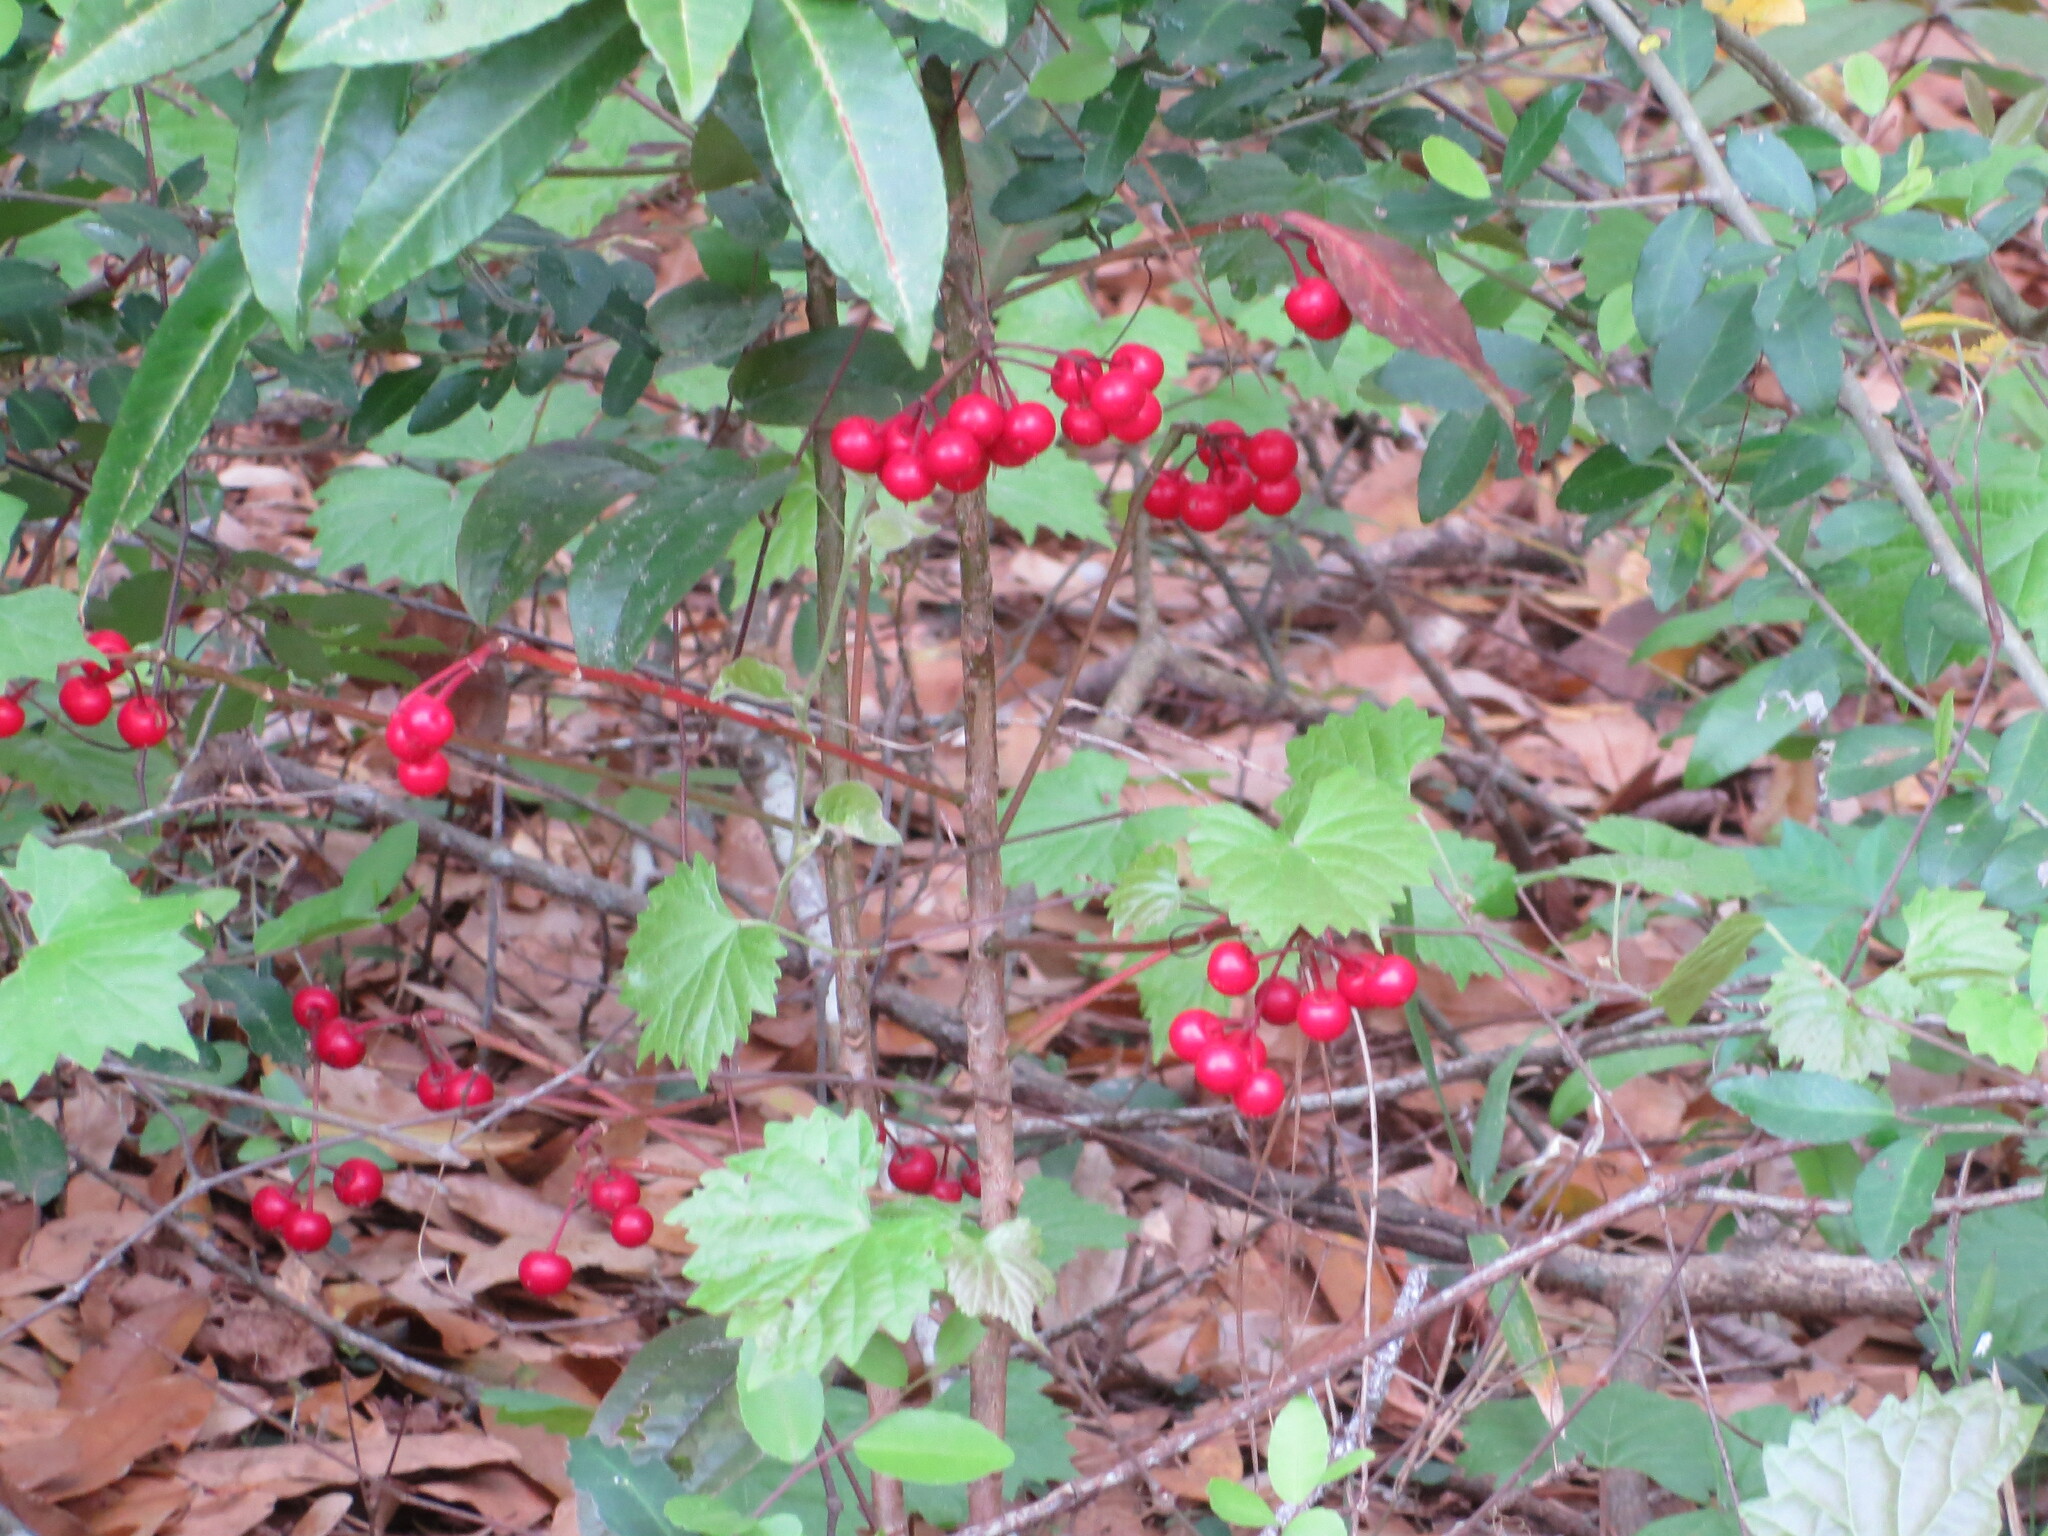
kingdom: Plantae
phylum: Tracheophyta
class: Magnoliopsida
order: Ericales
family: Primulaceae
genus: Ardisia
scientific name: Ardisia crenata
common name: Hen's eyes
